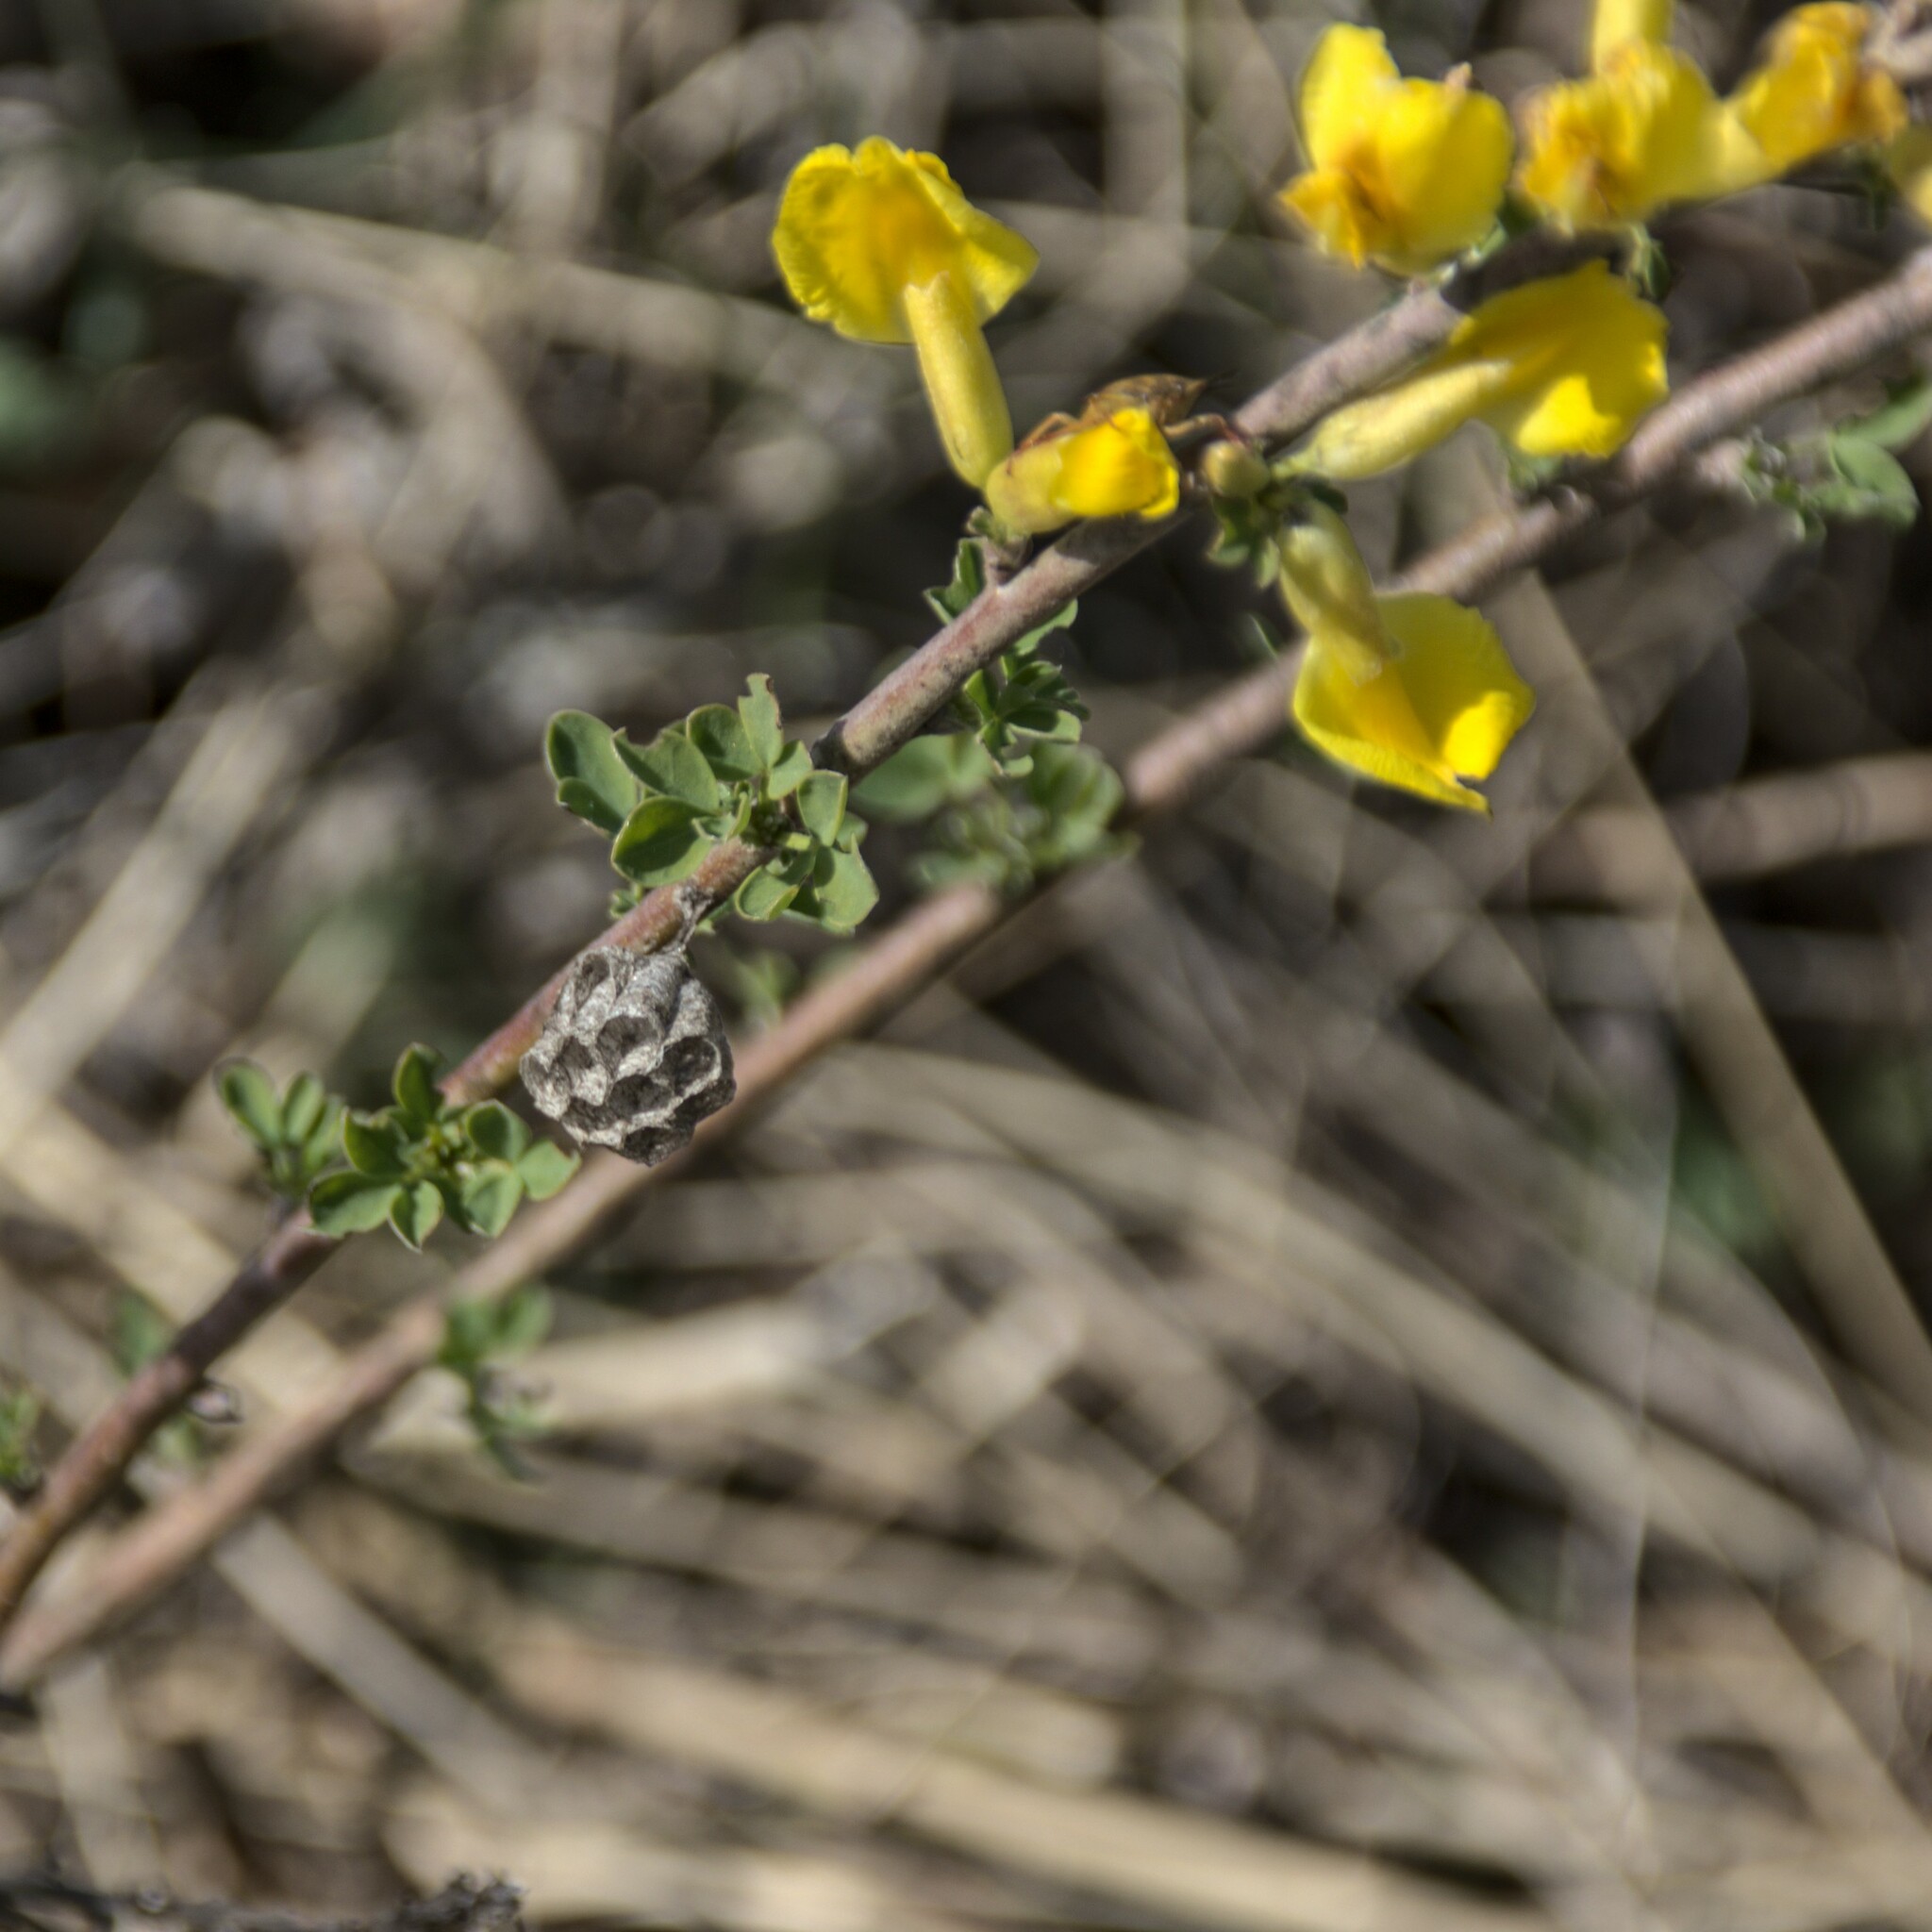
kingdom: Plantae
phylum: Tracheophyta
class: Magnoliopsida
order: Fabales
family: Fabaceae
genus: Chamaecytisus
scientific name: Chamaecytisus ruthenicus
